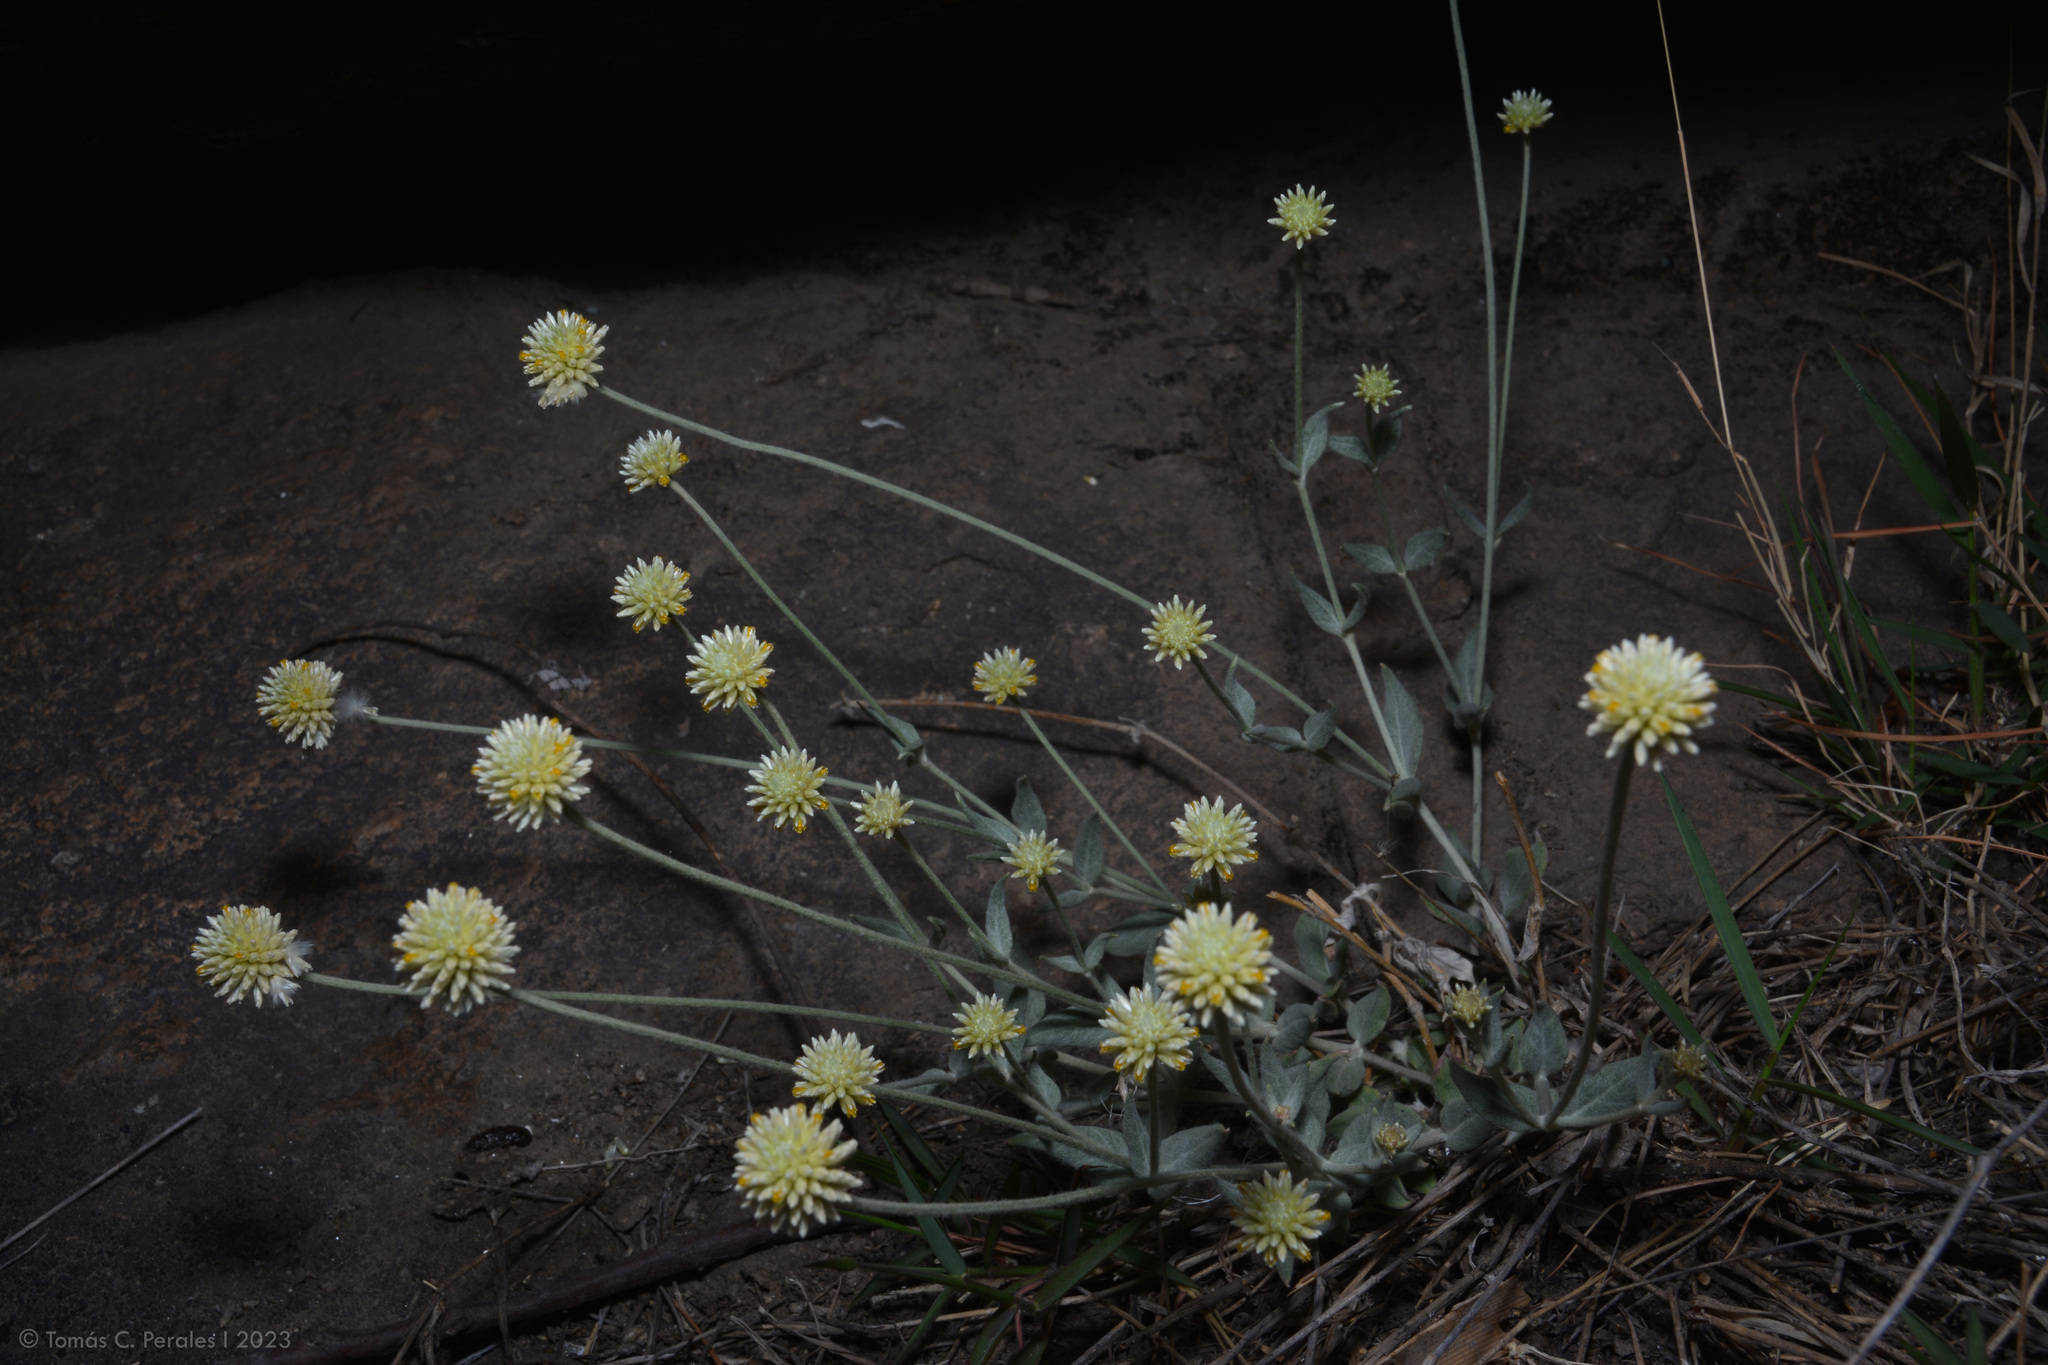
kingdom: Plantae
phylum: Tracheophyta
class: Magnoliopsida
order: Caryophyllales
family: Amaranthaceae
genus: Pfaffia
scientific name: Pfaffia gnaphalioides
